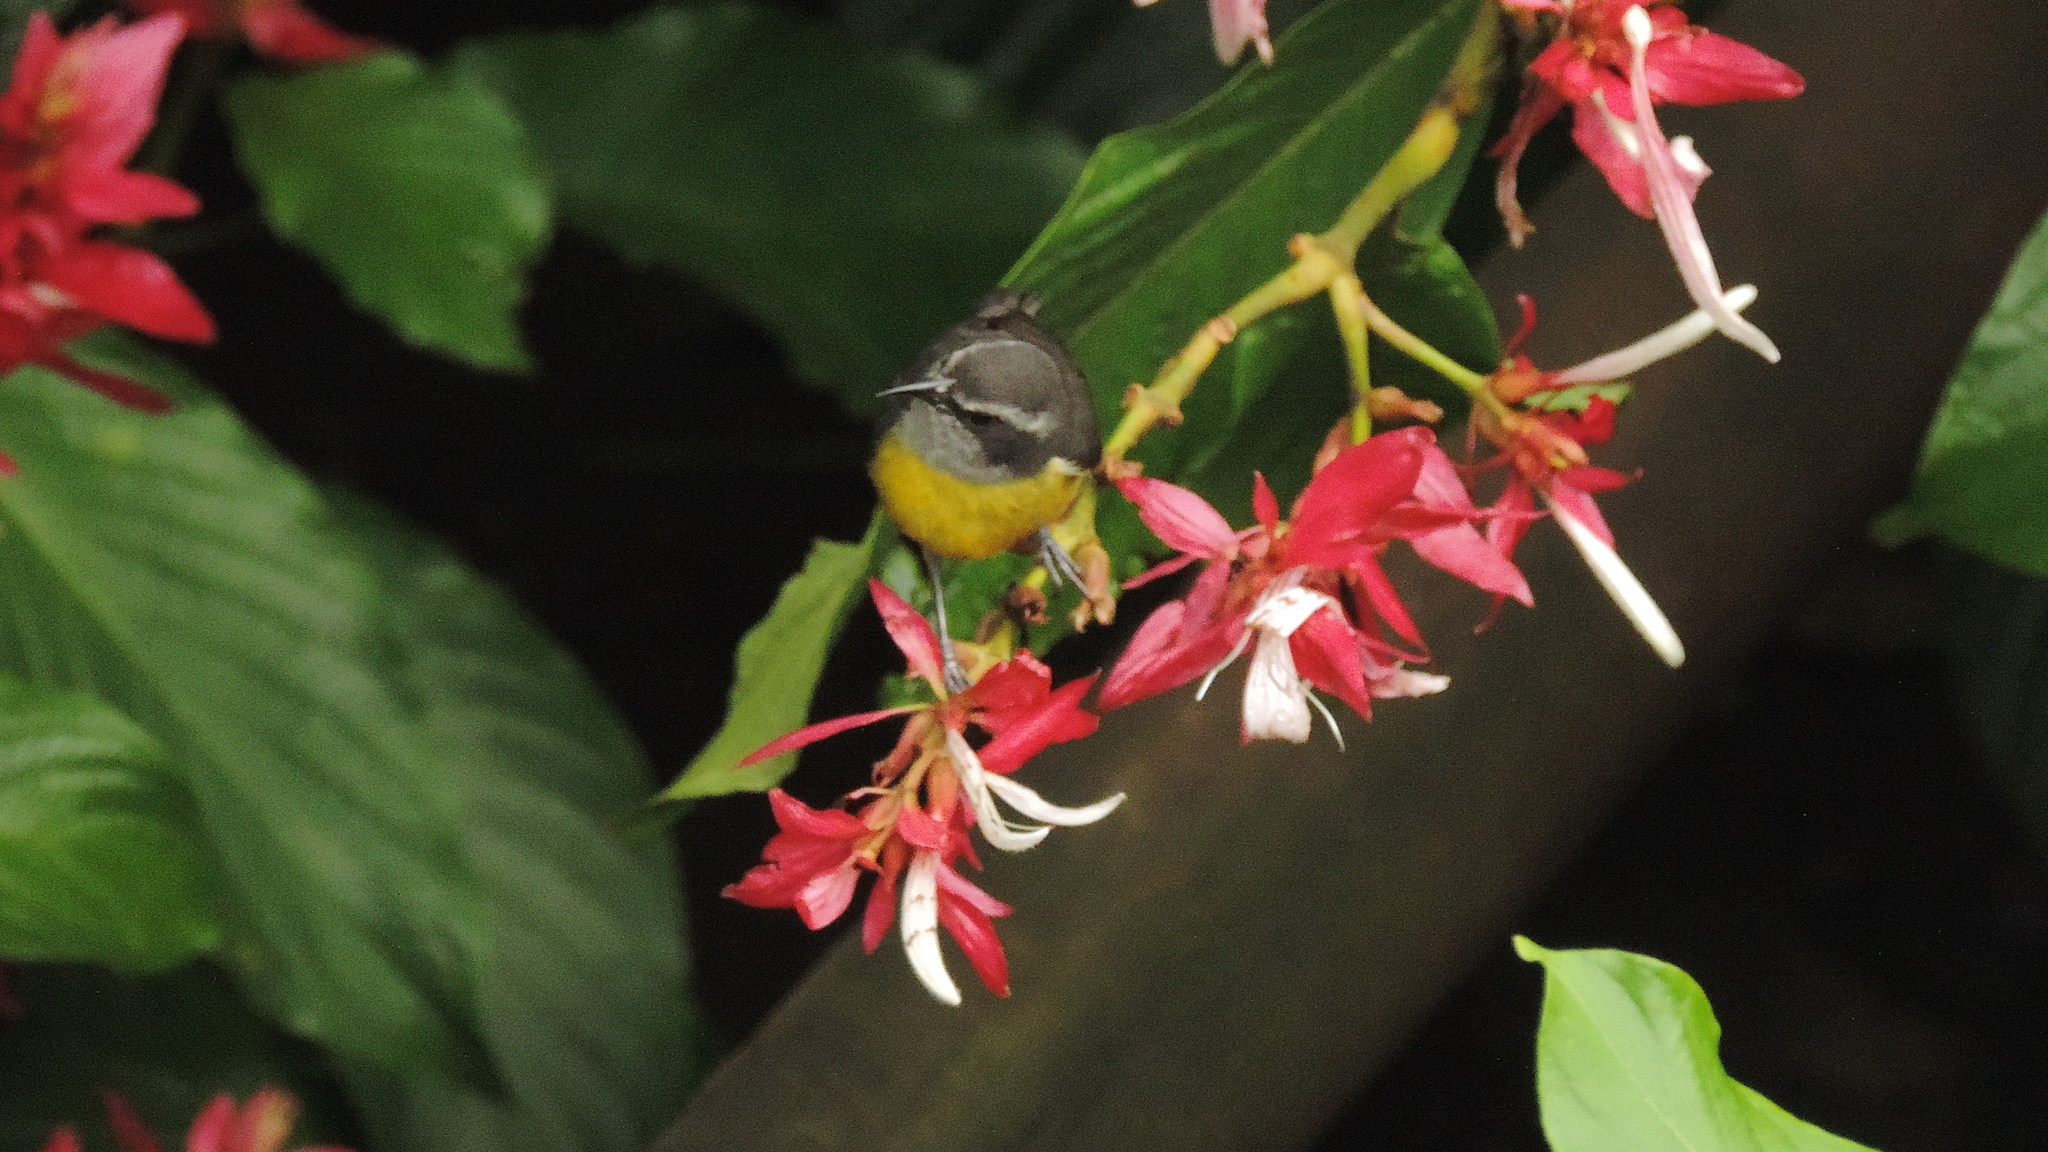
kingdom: Animalia
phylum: Chordata
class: Aves
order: Passeriformes
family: Thraupidae
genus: Coereba
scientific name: Coereba flaveola
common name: Bananaquit
